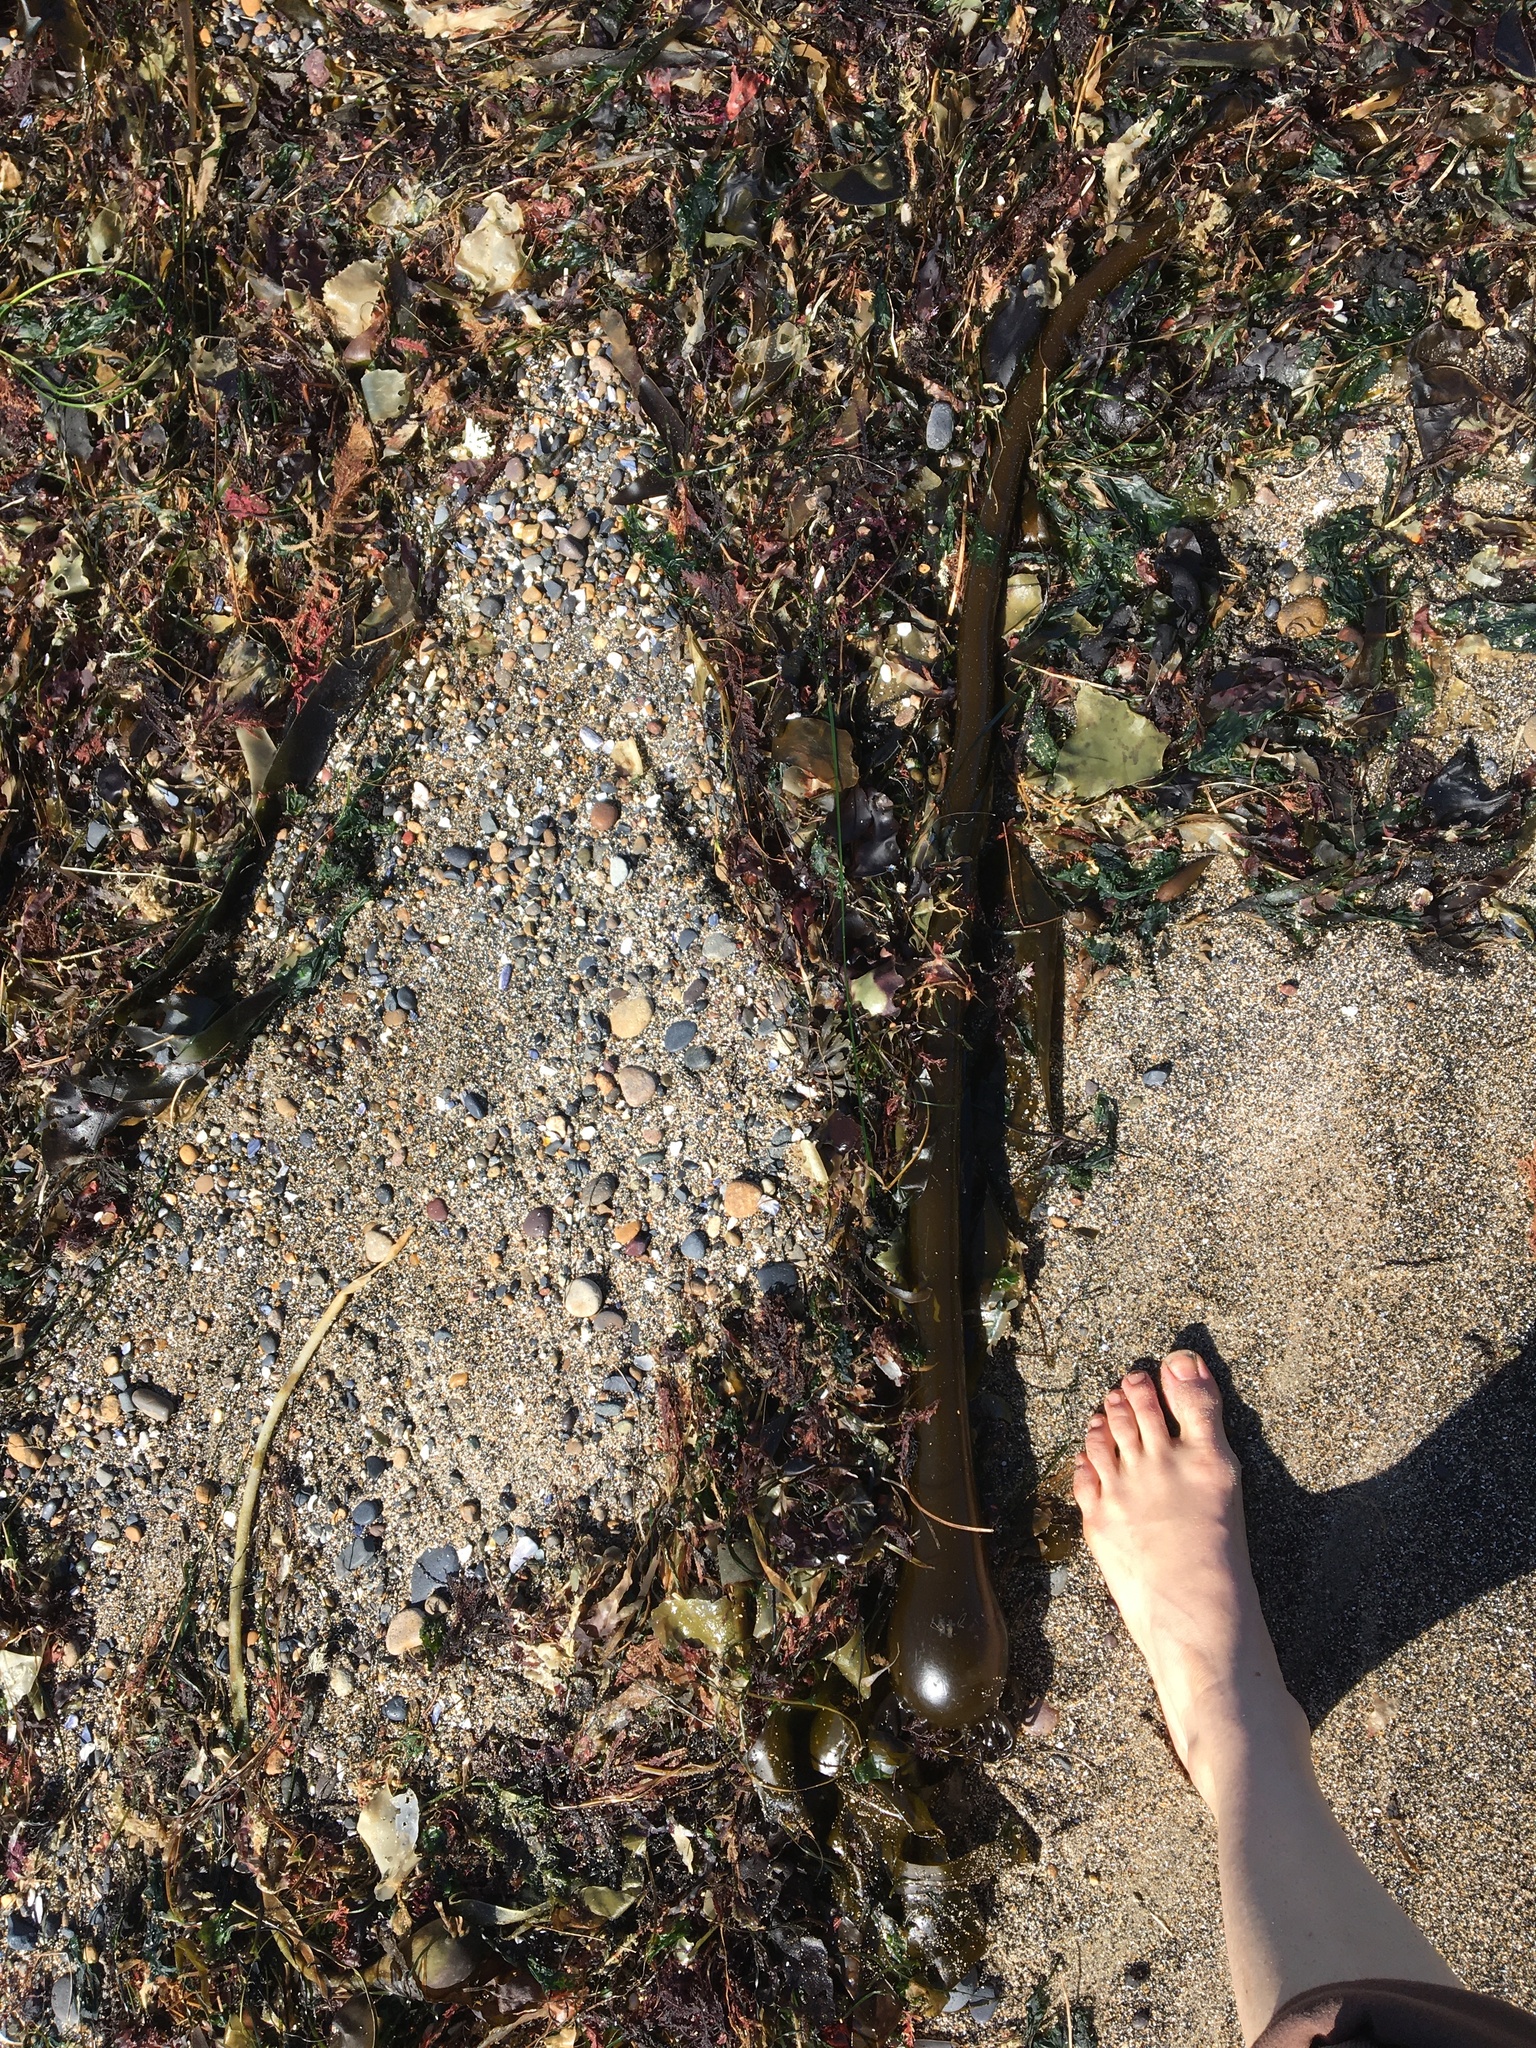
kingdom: Chromista
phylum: Ochrophyta
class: Phaeophyceae
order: Laminariales
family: Laminariaceae
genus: Nereocystis
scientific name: Nereocystis luetkeana
